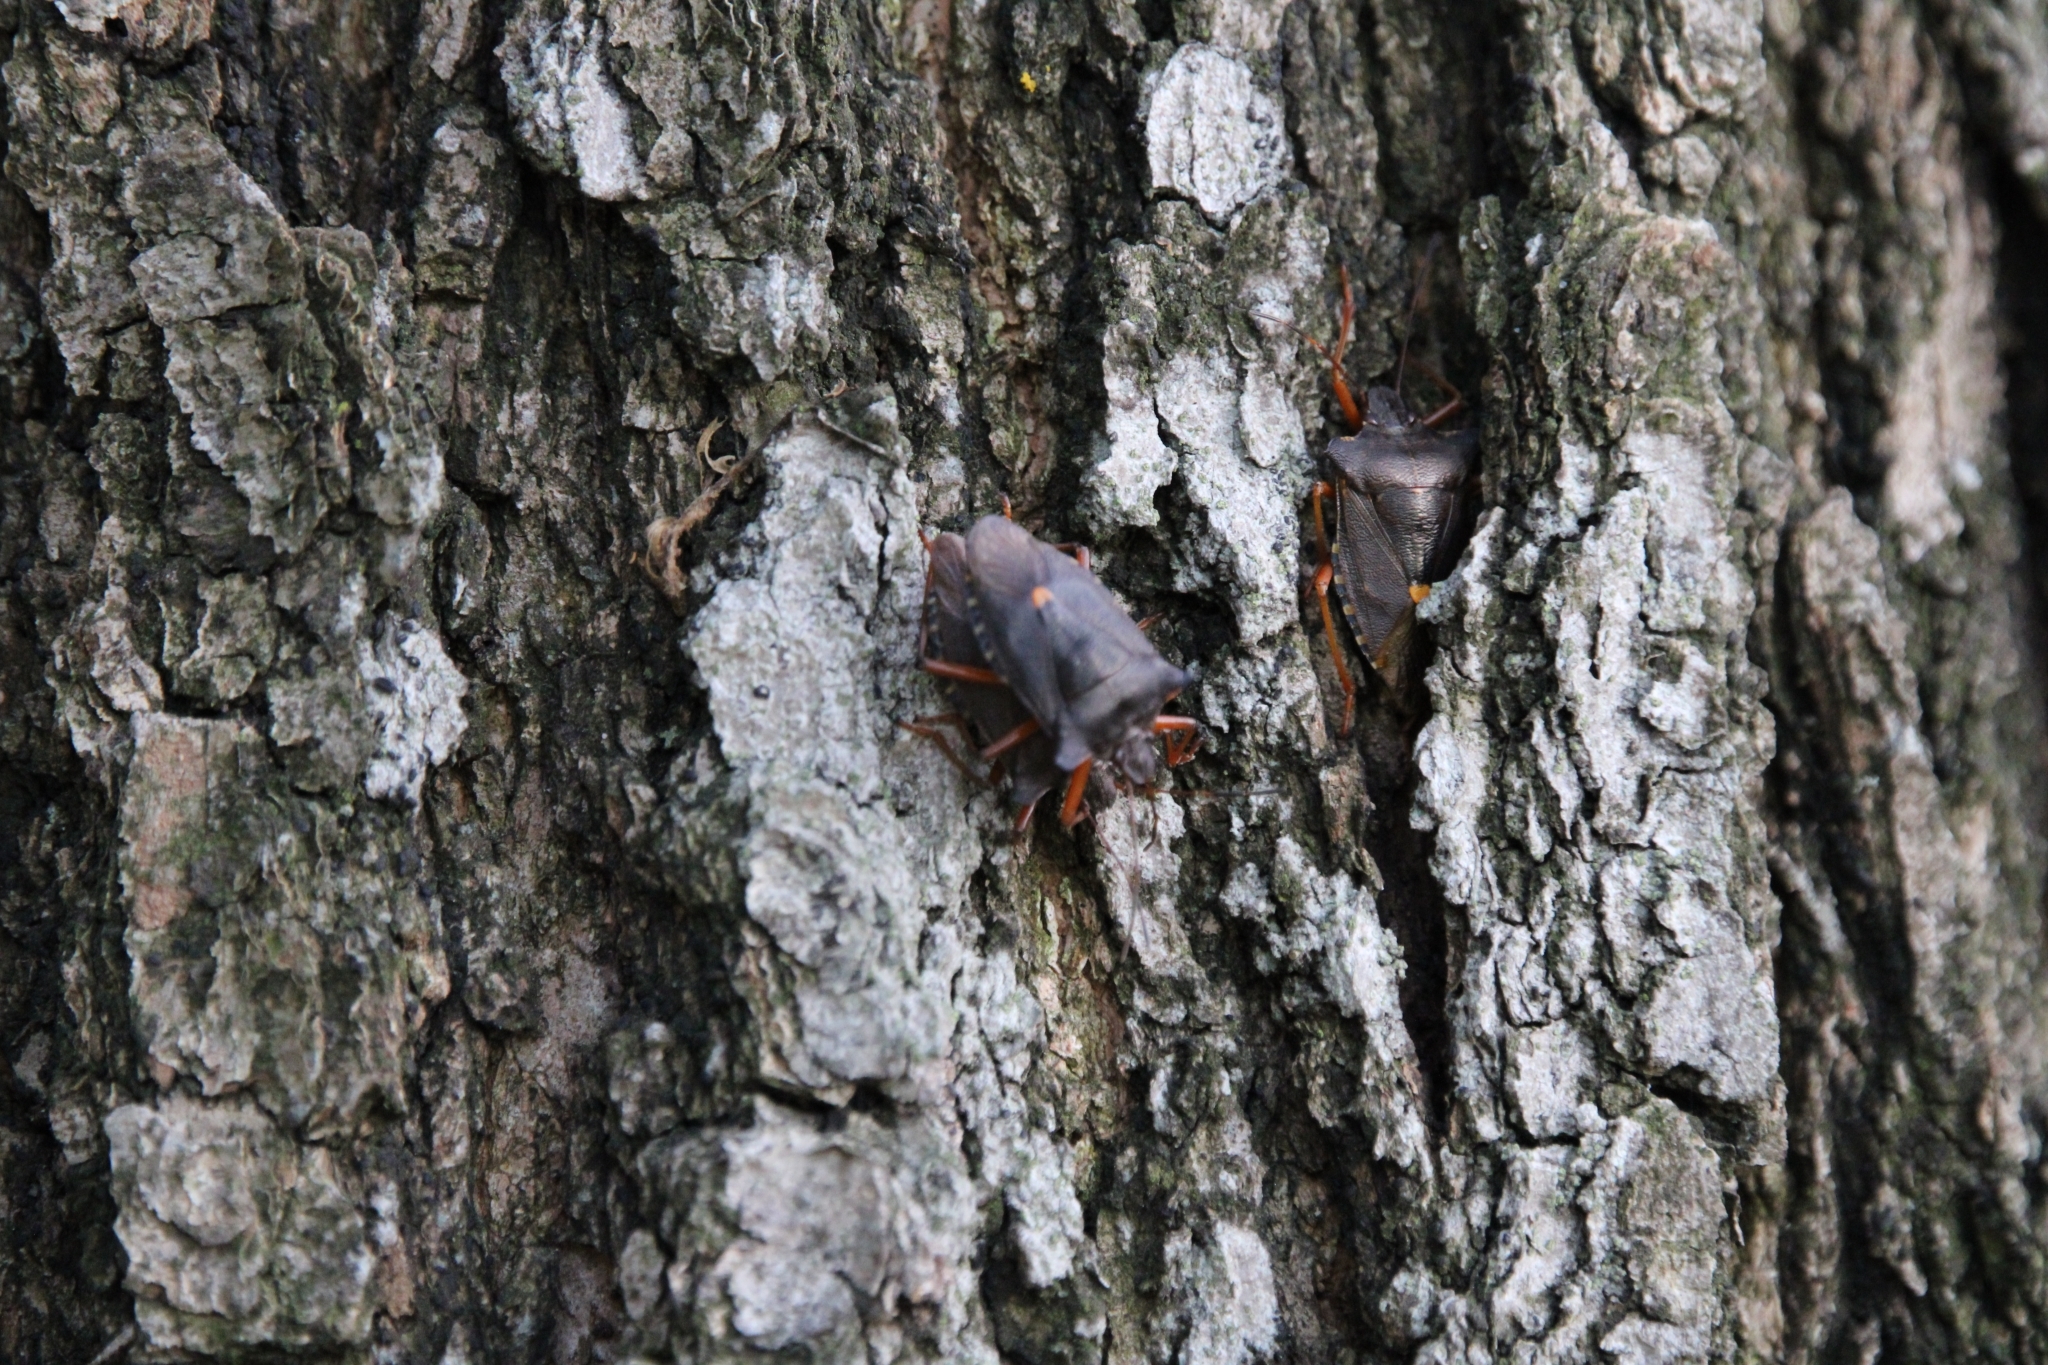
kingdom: Animalia
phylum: Arthropoda
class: Insecta
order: Hemiptera
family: Pentatomidae
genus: Pentatoma
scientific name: Pentatoma rufipes
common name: Forest bug
